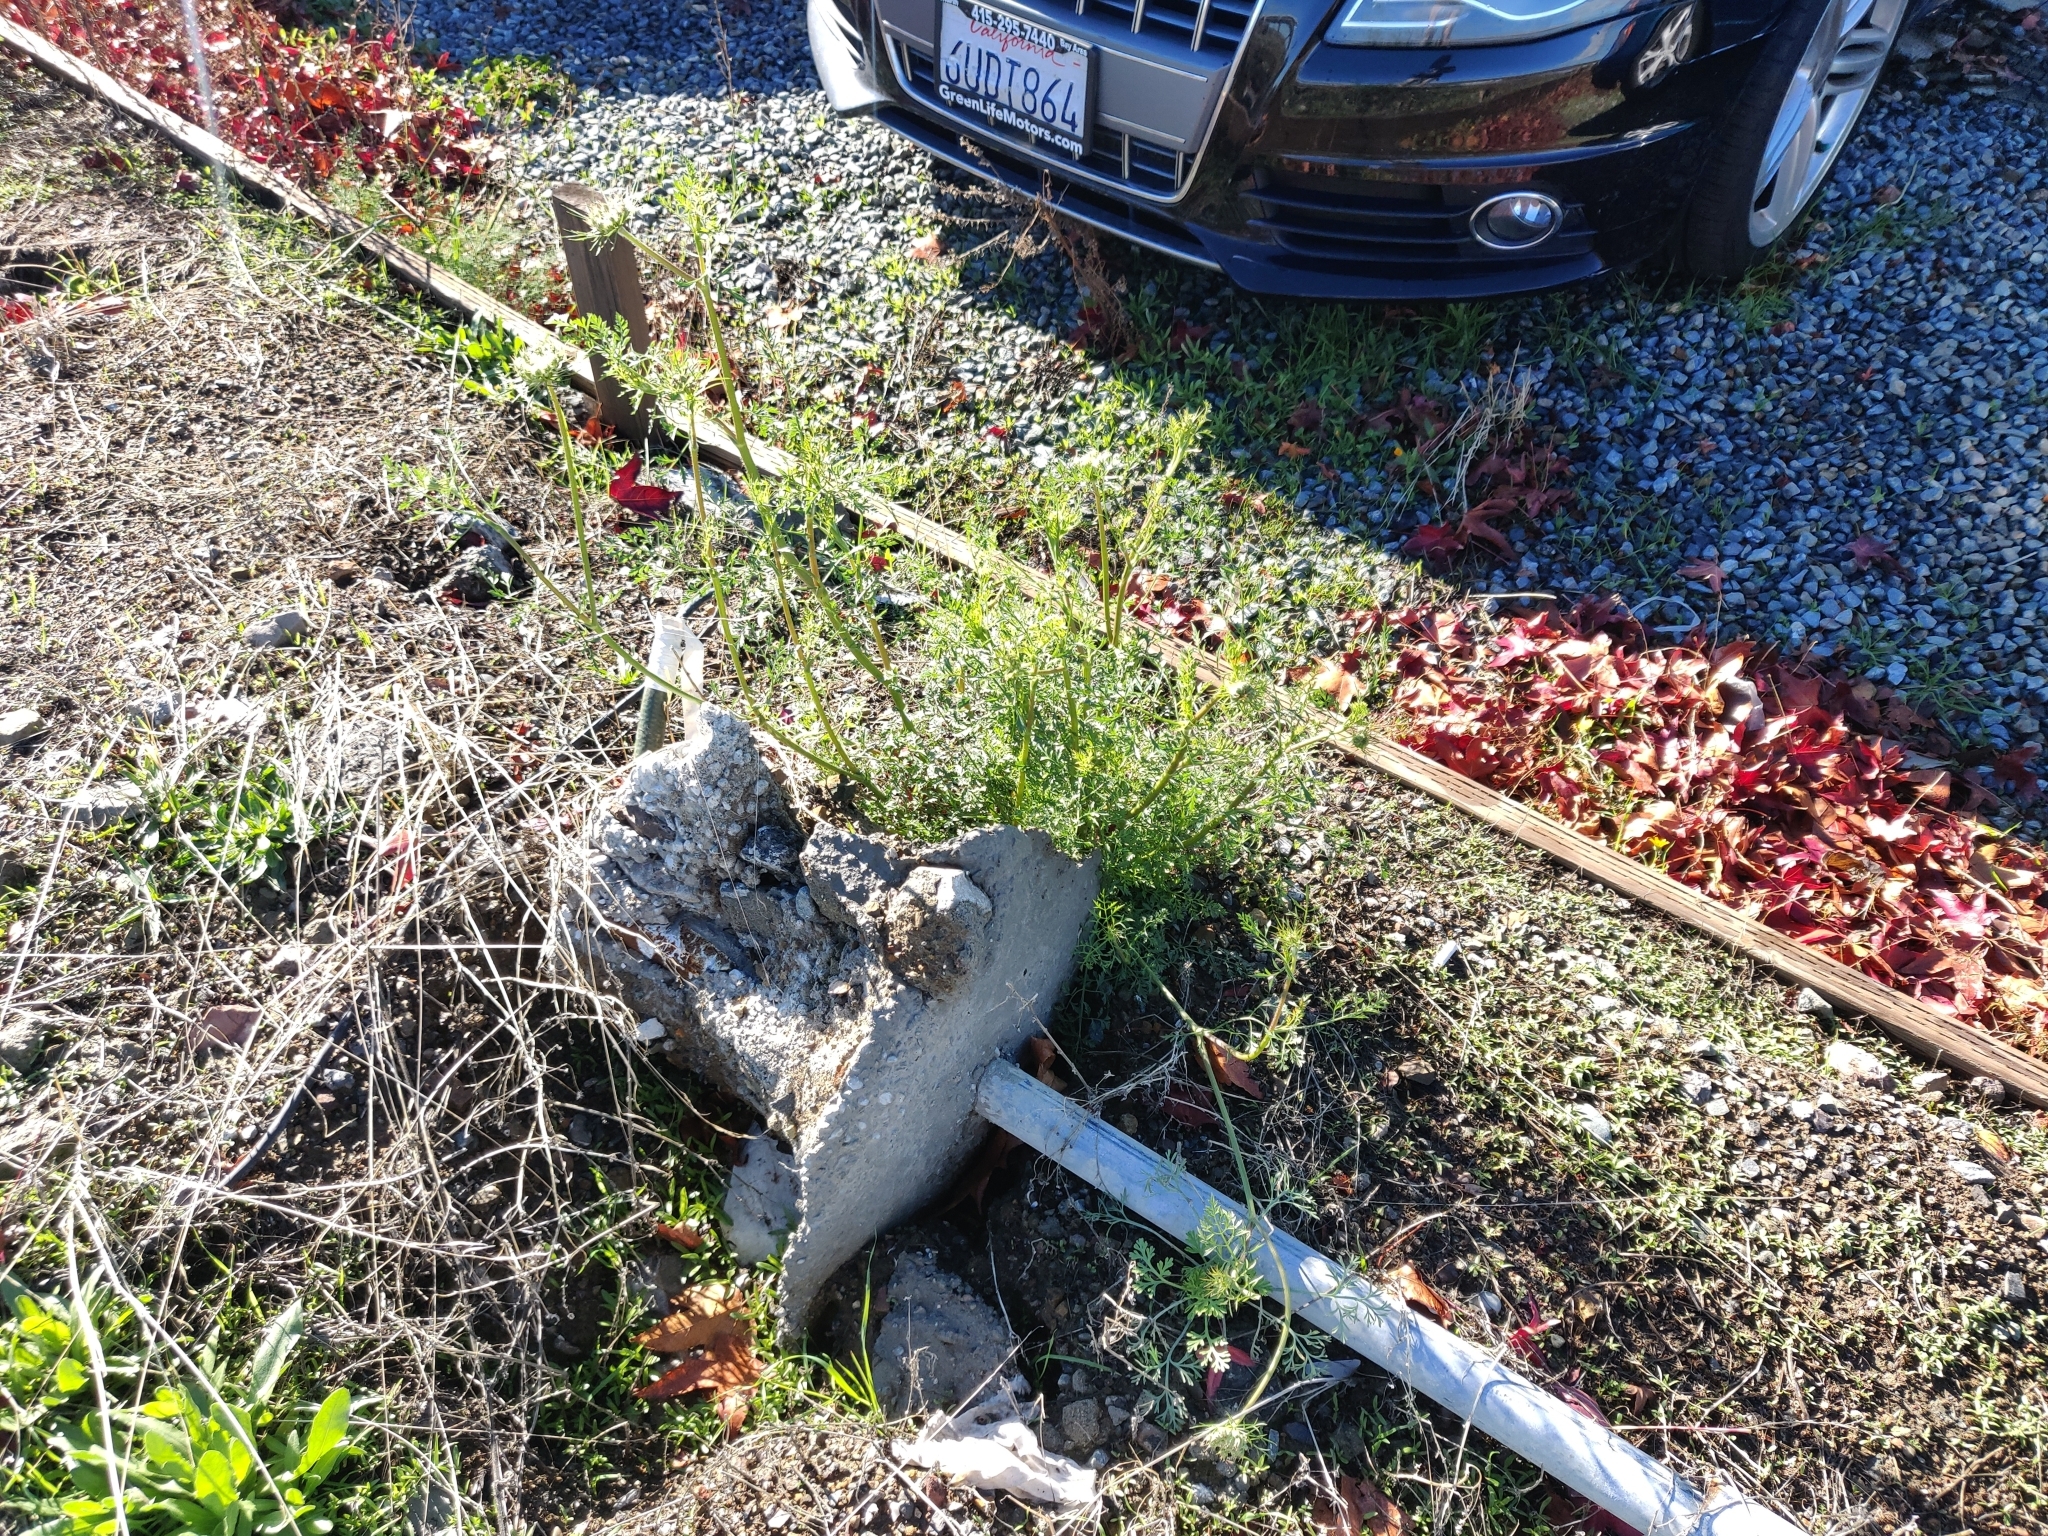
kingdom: Plantae
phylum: Tracheophyta
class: Magnoliopsida
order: Apiales
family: Apiaceae
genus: Daucus
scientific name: Daucus carota
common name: Wild carrot
